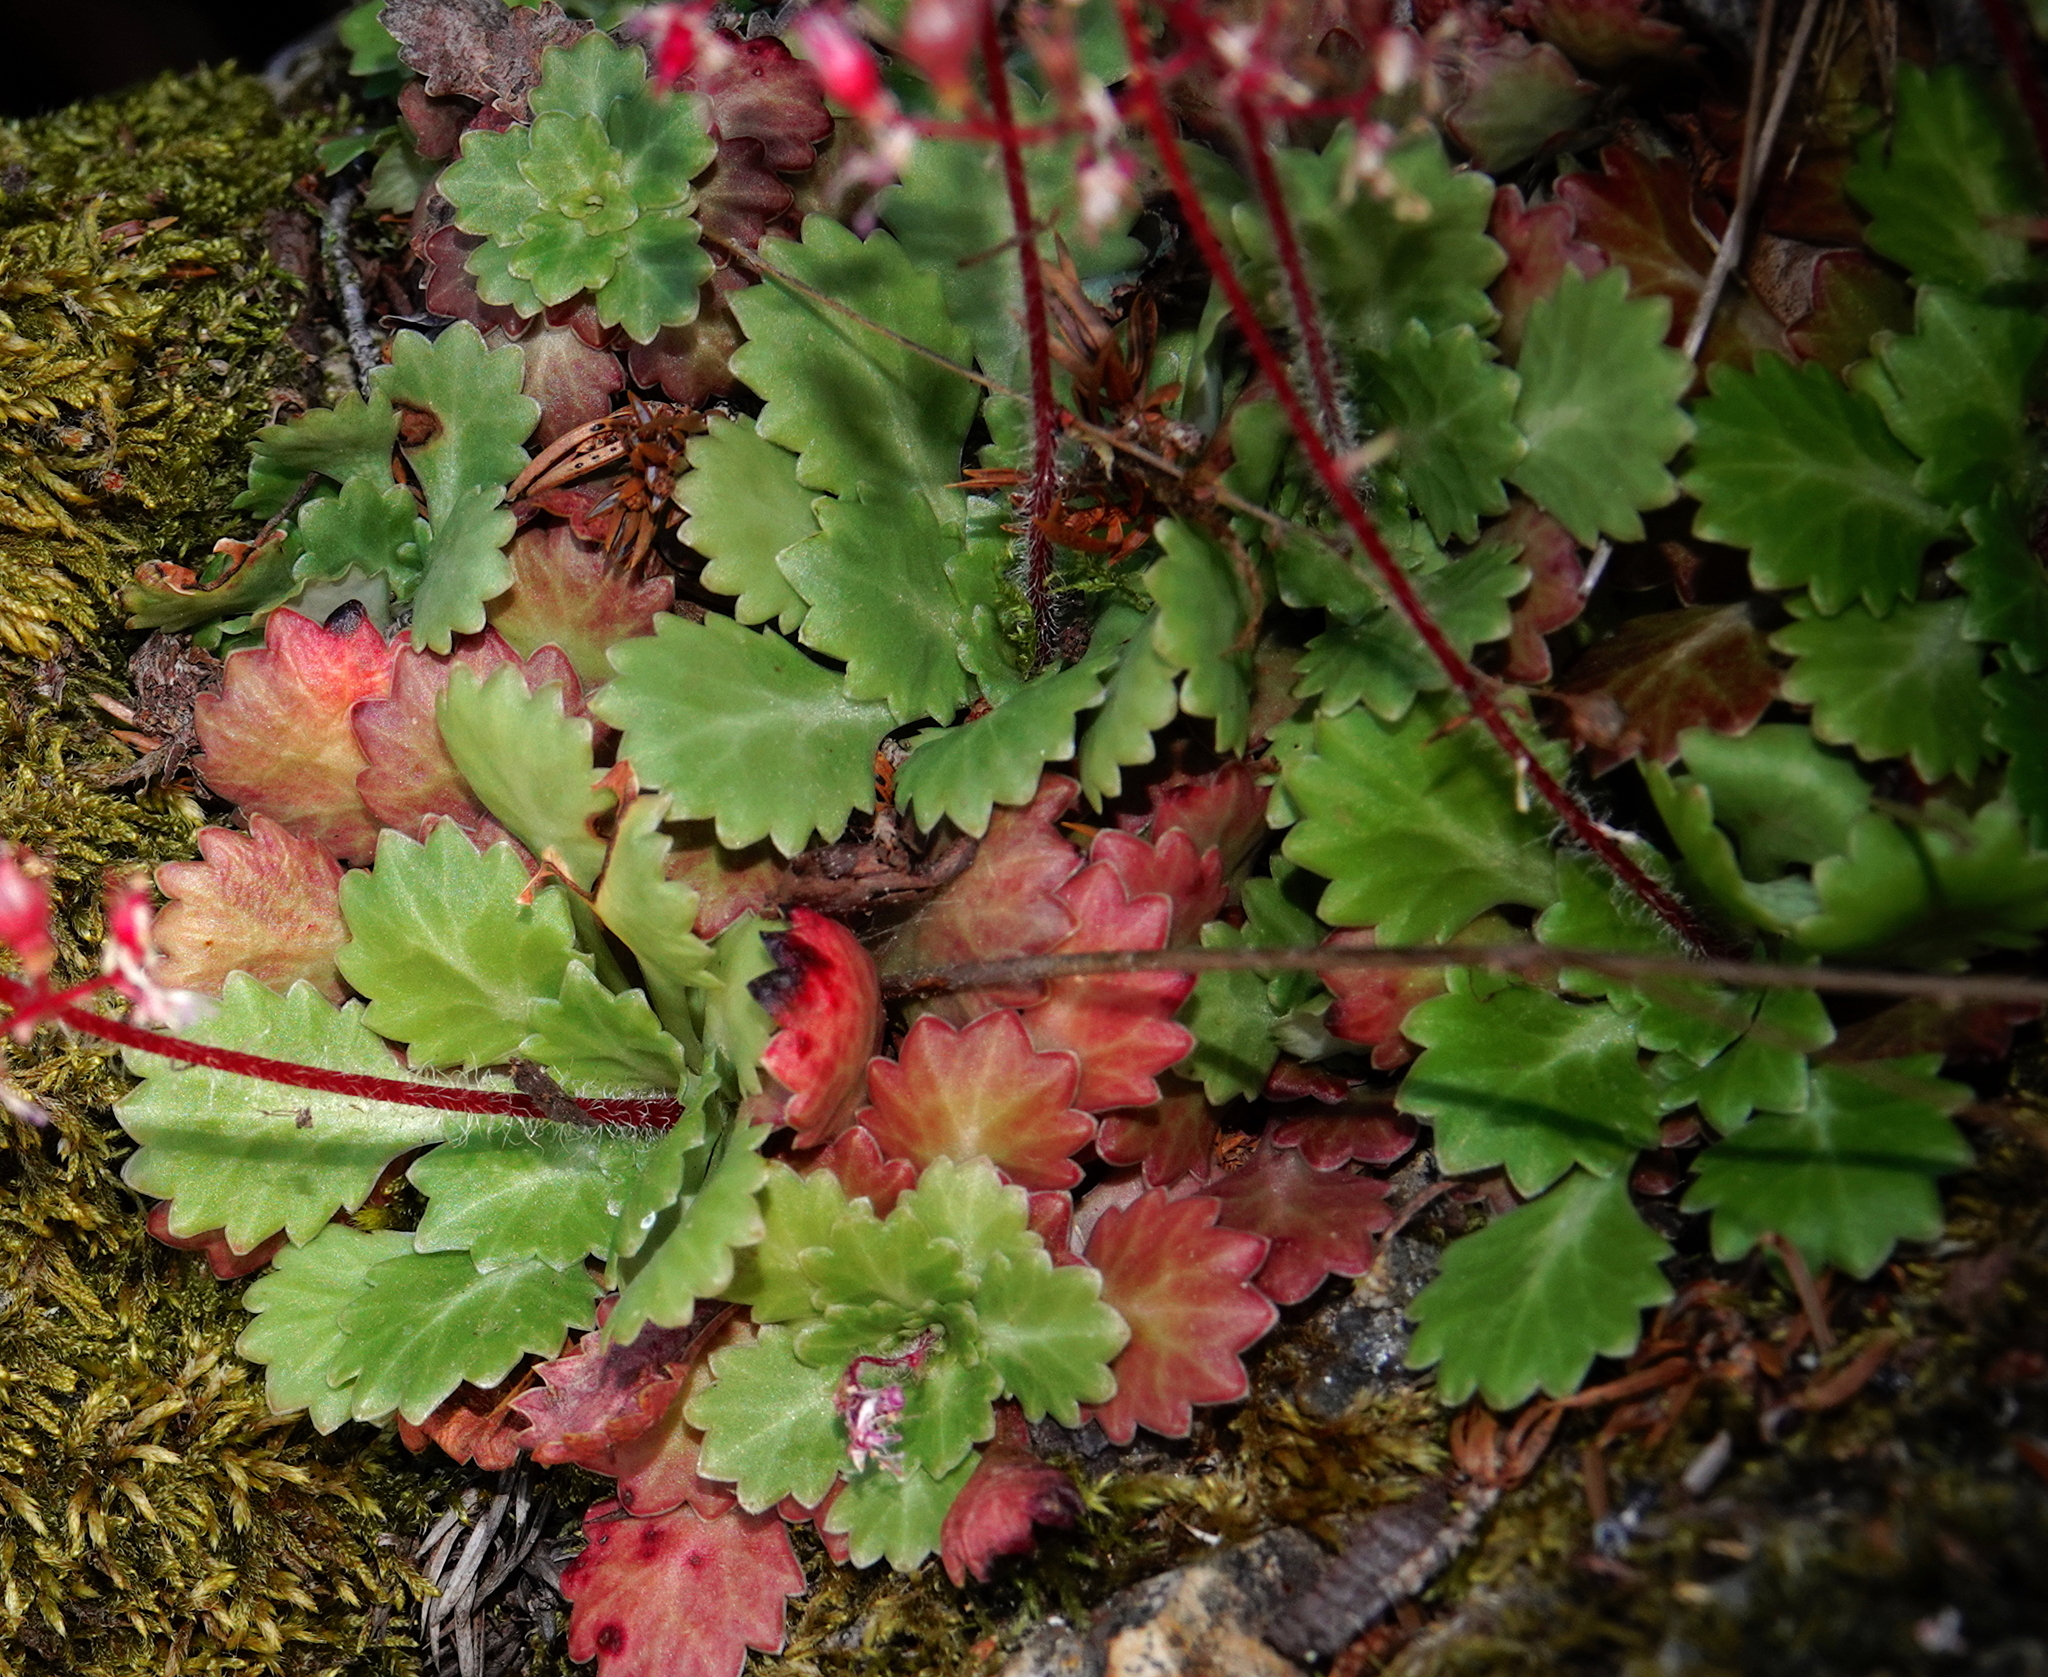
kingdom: Plantae
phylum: Tracheophyta
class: Magnoliopsida
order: Saxifragales
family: Saxifragaceae
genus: Saxifraga
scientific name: Saxifraga spathularis
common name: St patrick's-cabbage
